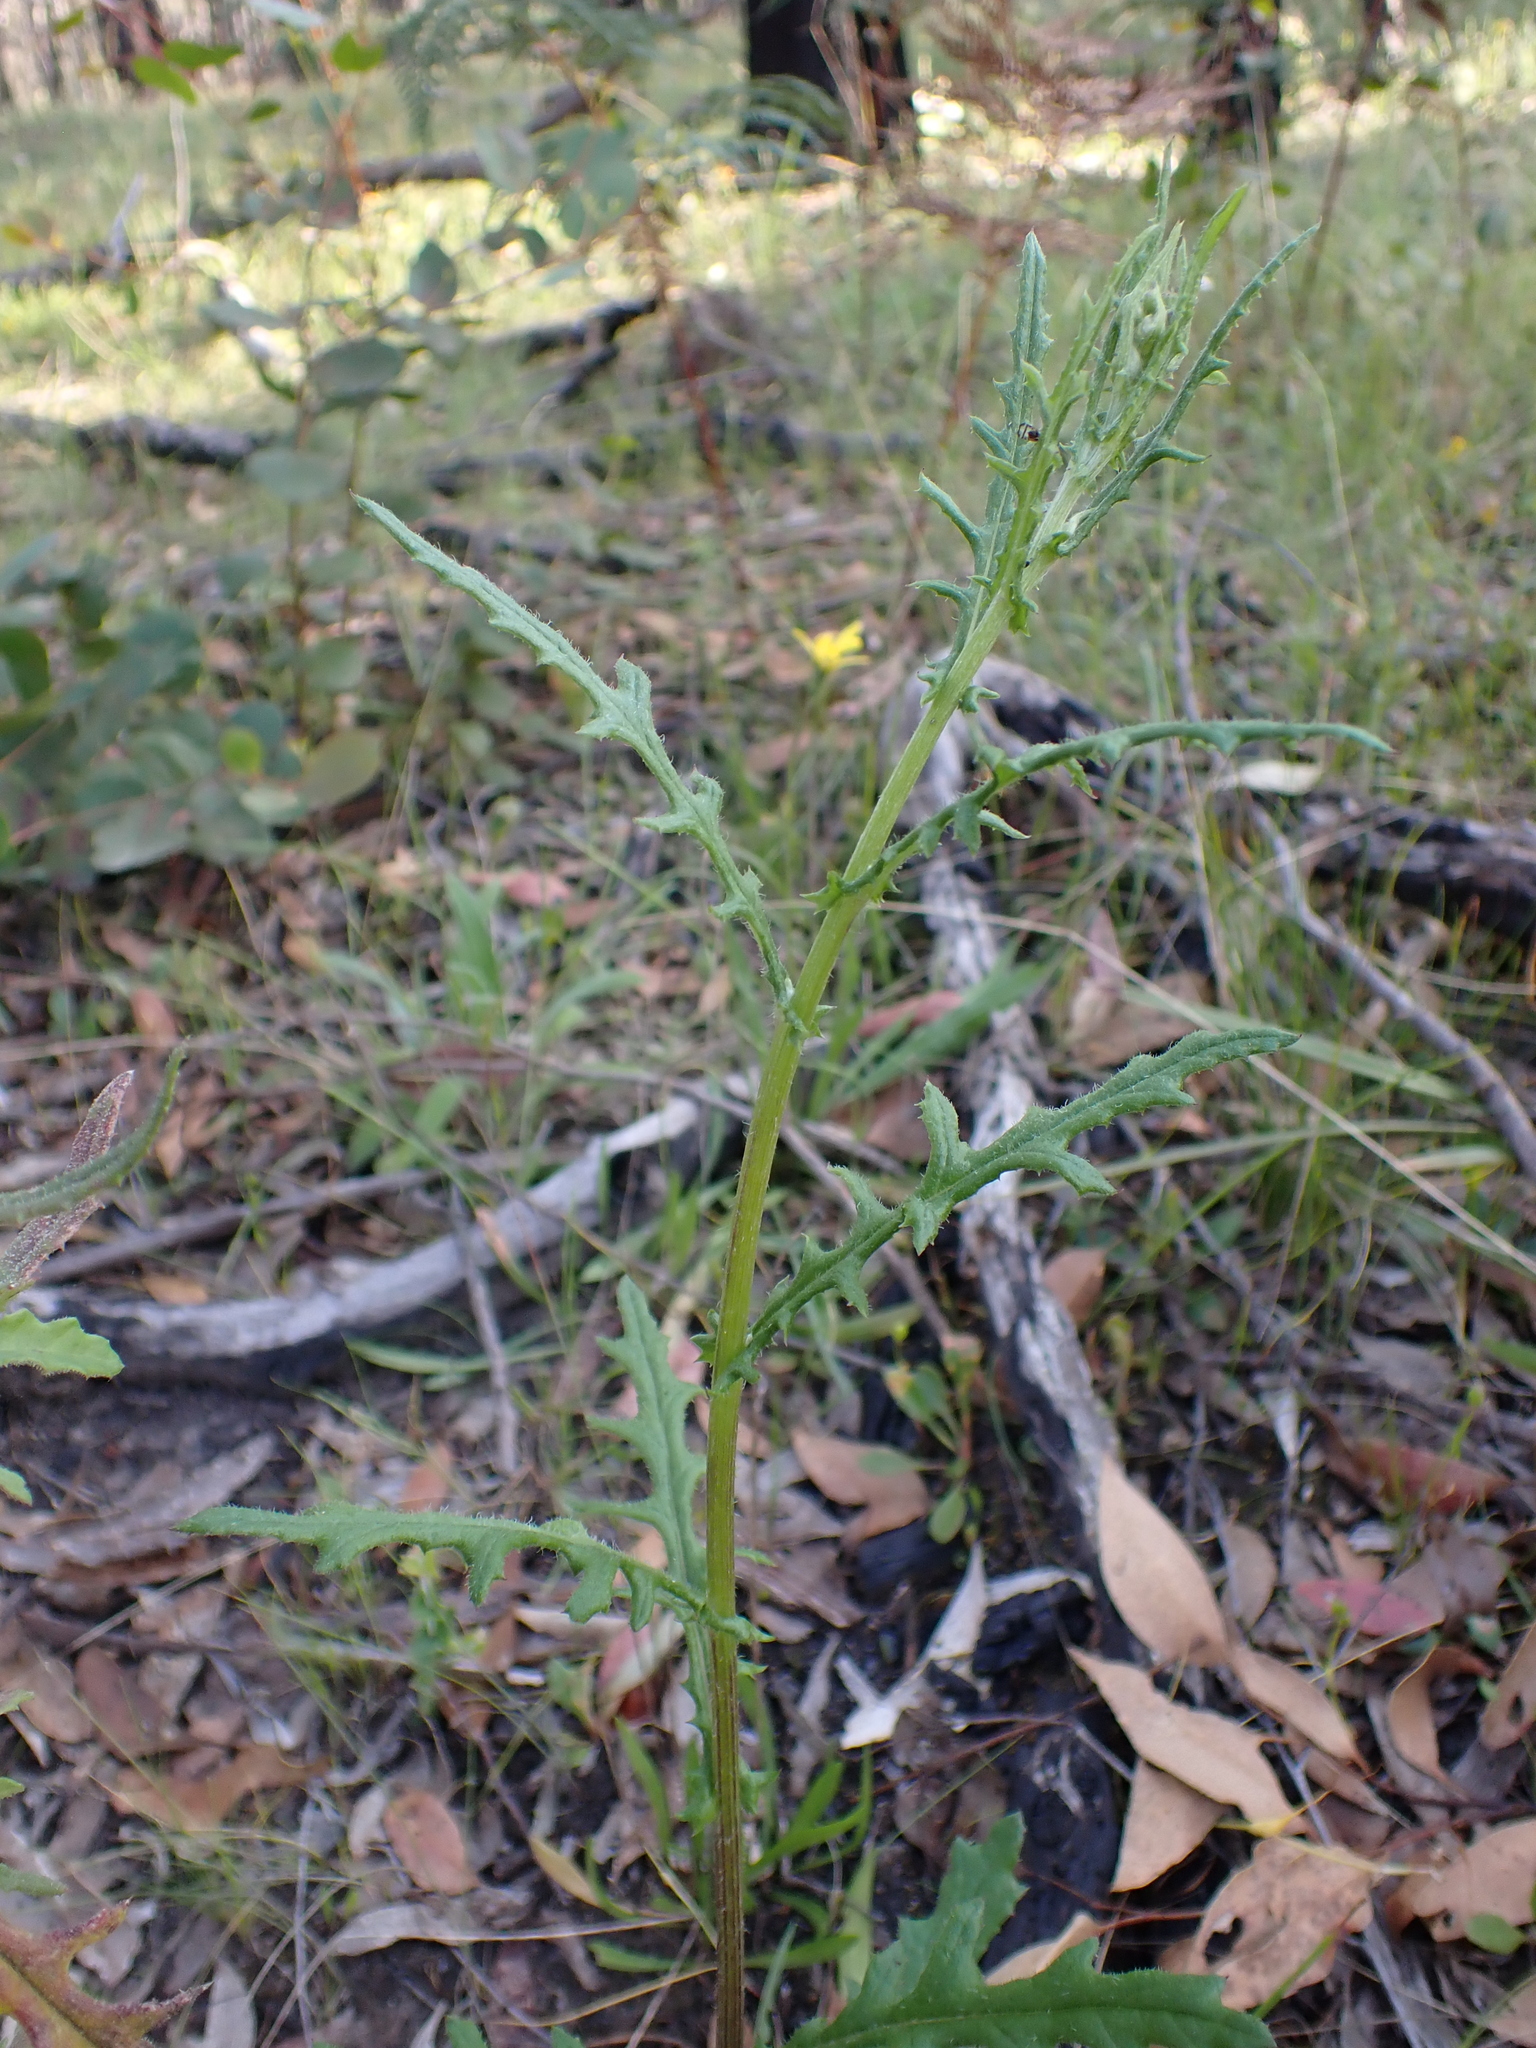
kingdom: Plantae
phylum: Tracheophyta
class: Magnoliopsida
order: Asterales
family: Asteraceae
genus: Senecio
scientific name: Senecio hispidulus
